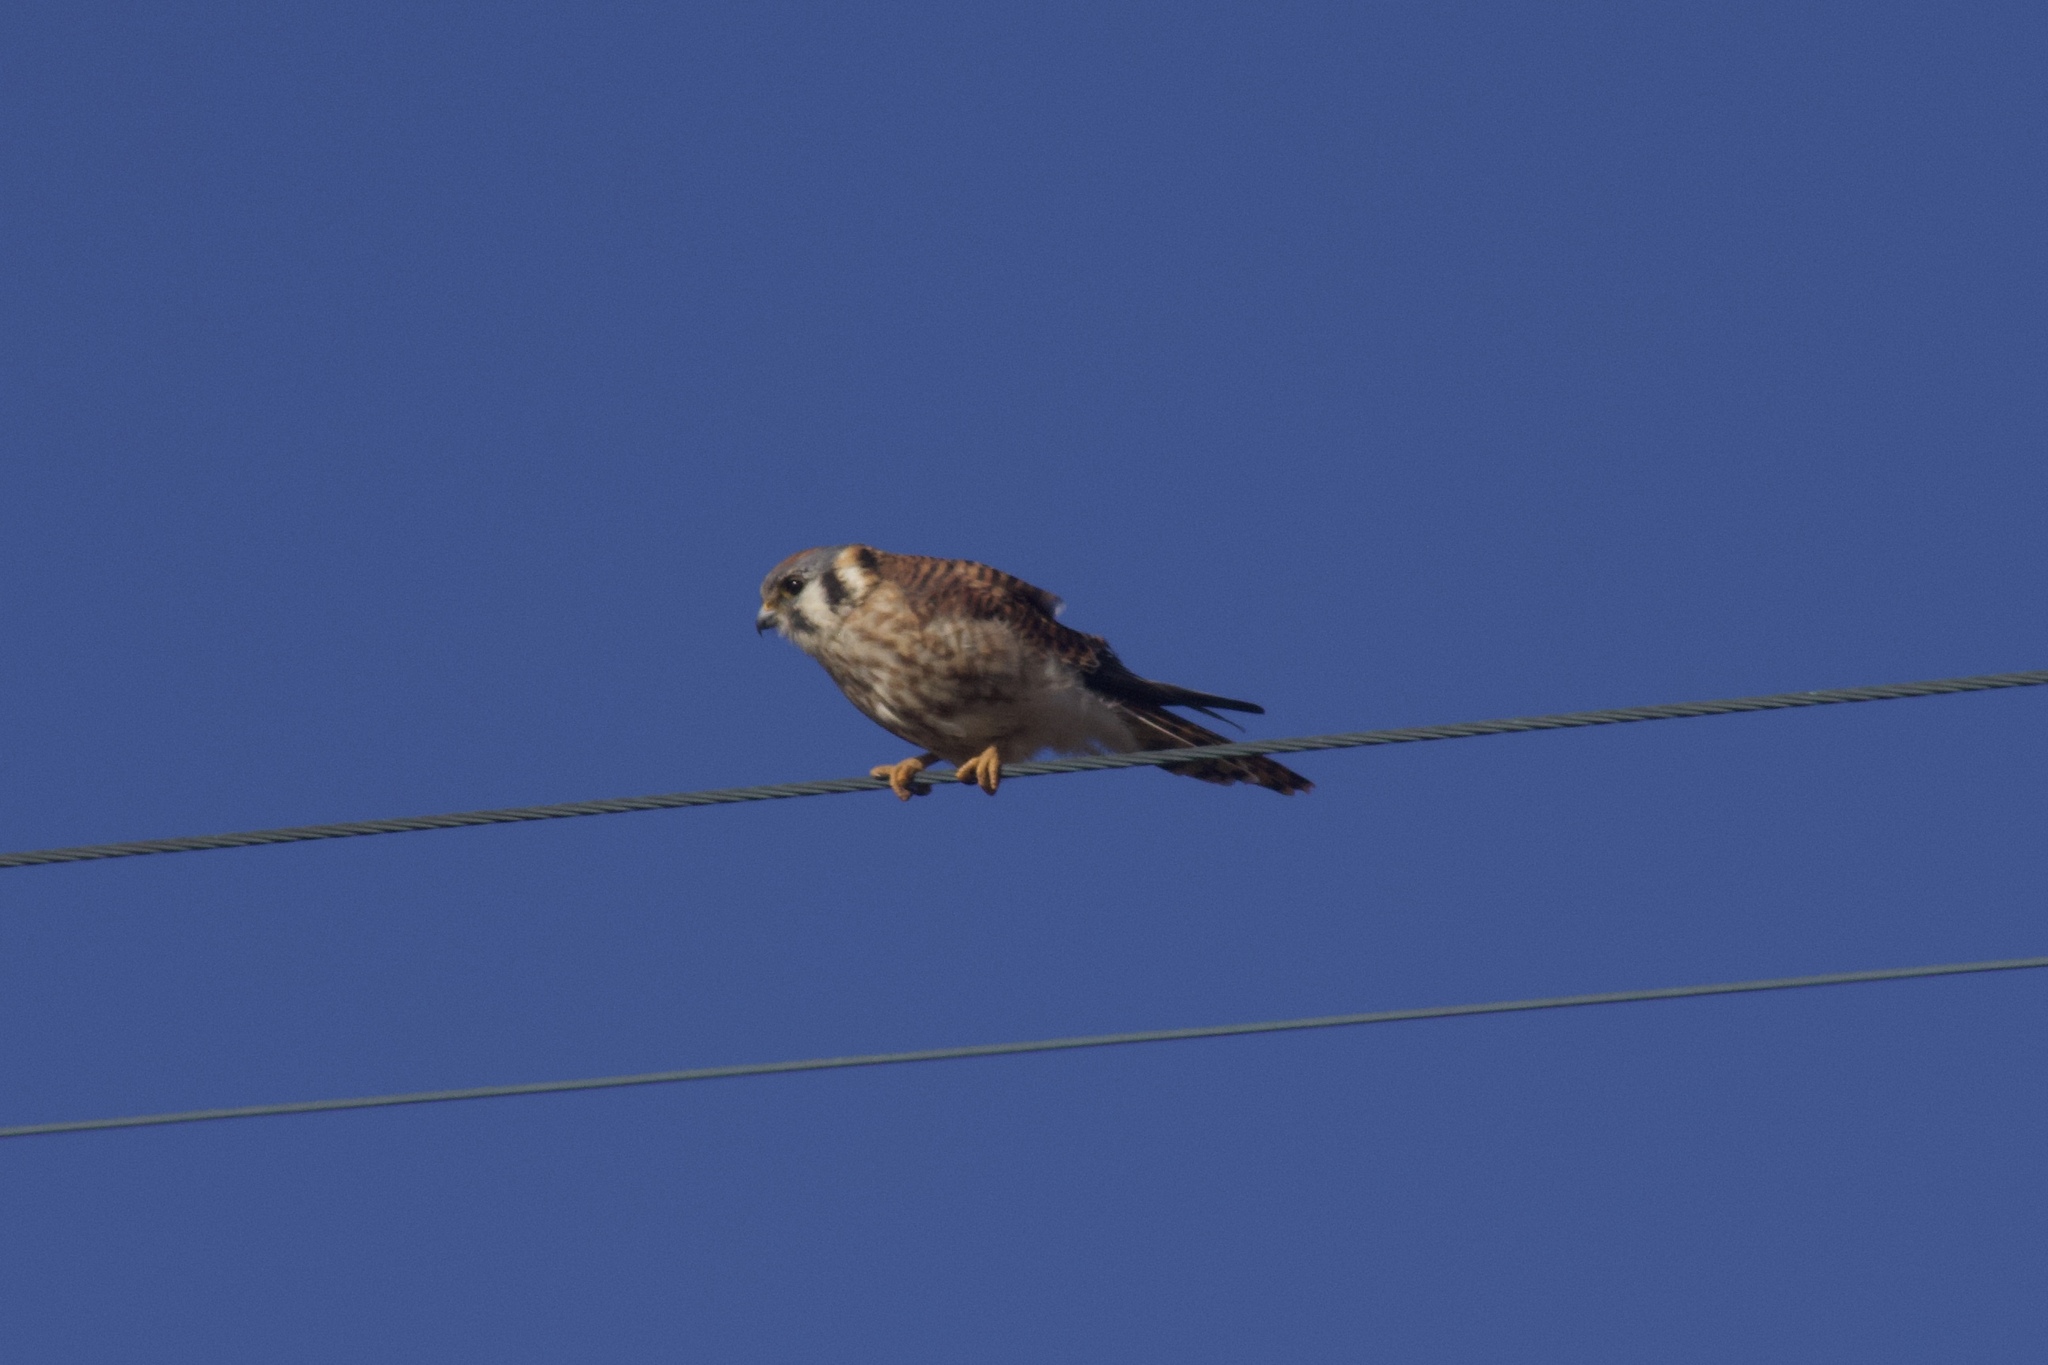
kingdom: Animalia
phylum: Chordata
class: Aves
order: Falconiformes
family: Falconidae
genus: Falco
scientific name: Falco sparverius
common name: American kestrel
